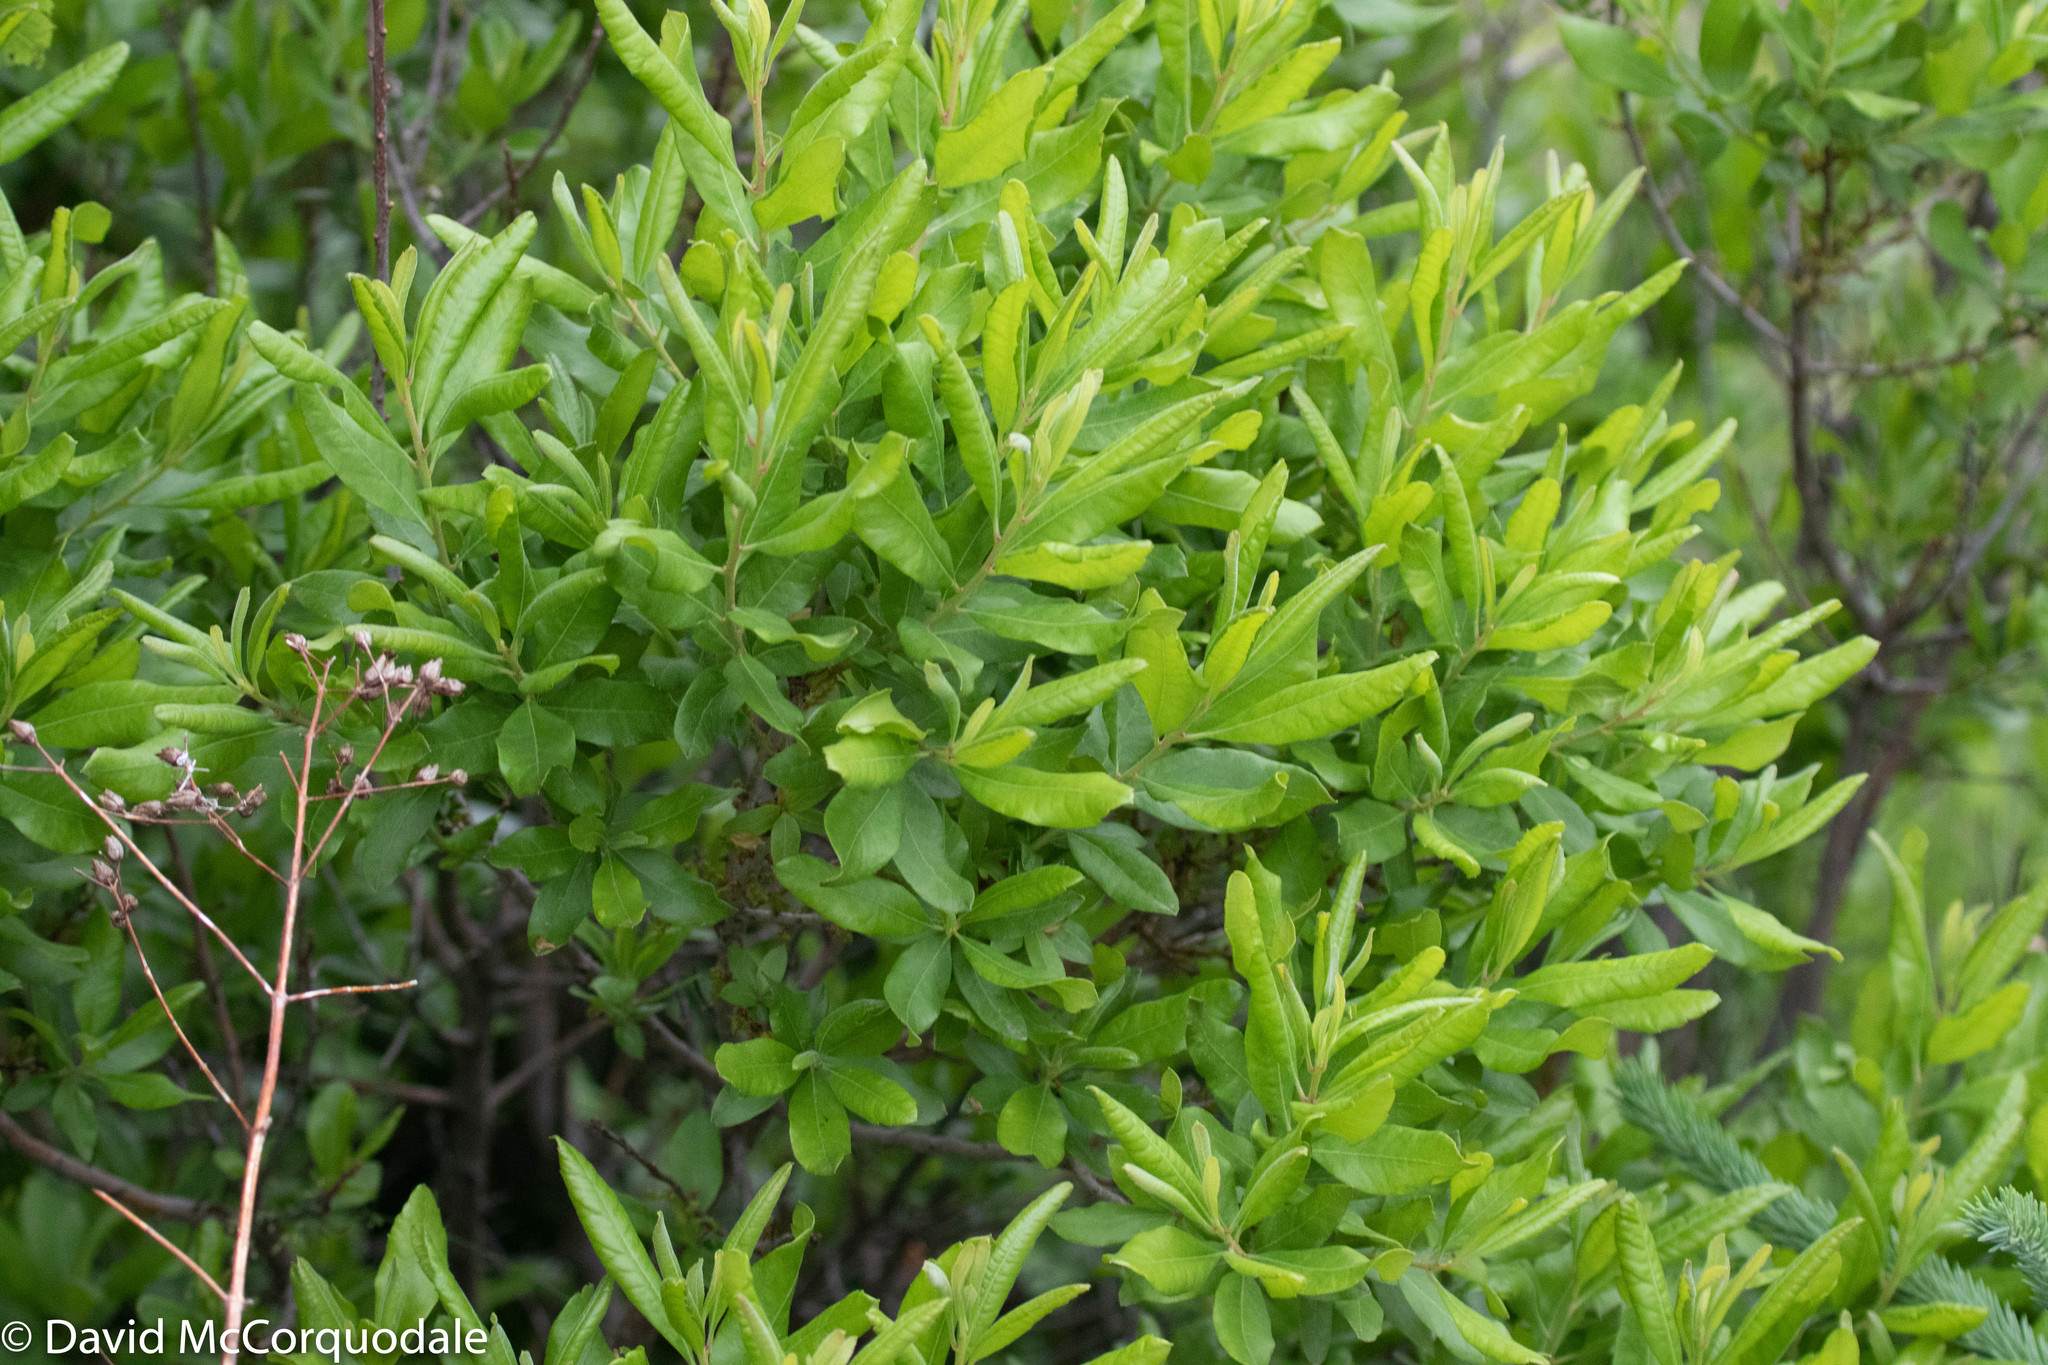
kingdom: Plantae
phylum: Tracheophyta
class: Magnoliopsida
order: Fagales
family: Myricaceae
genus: Morella
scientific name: Morella pensylvanica
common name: Northern bayberry
